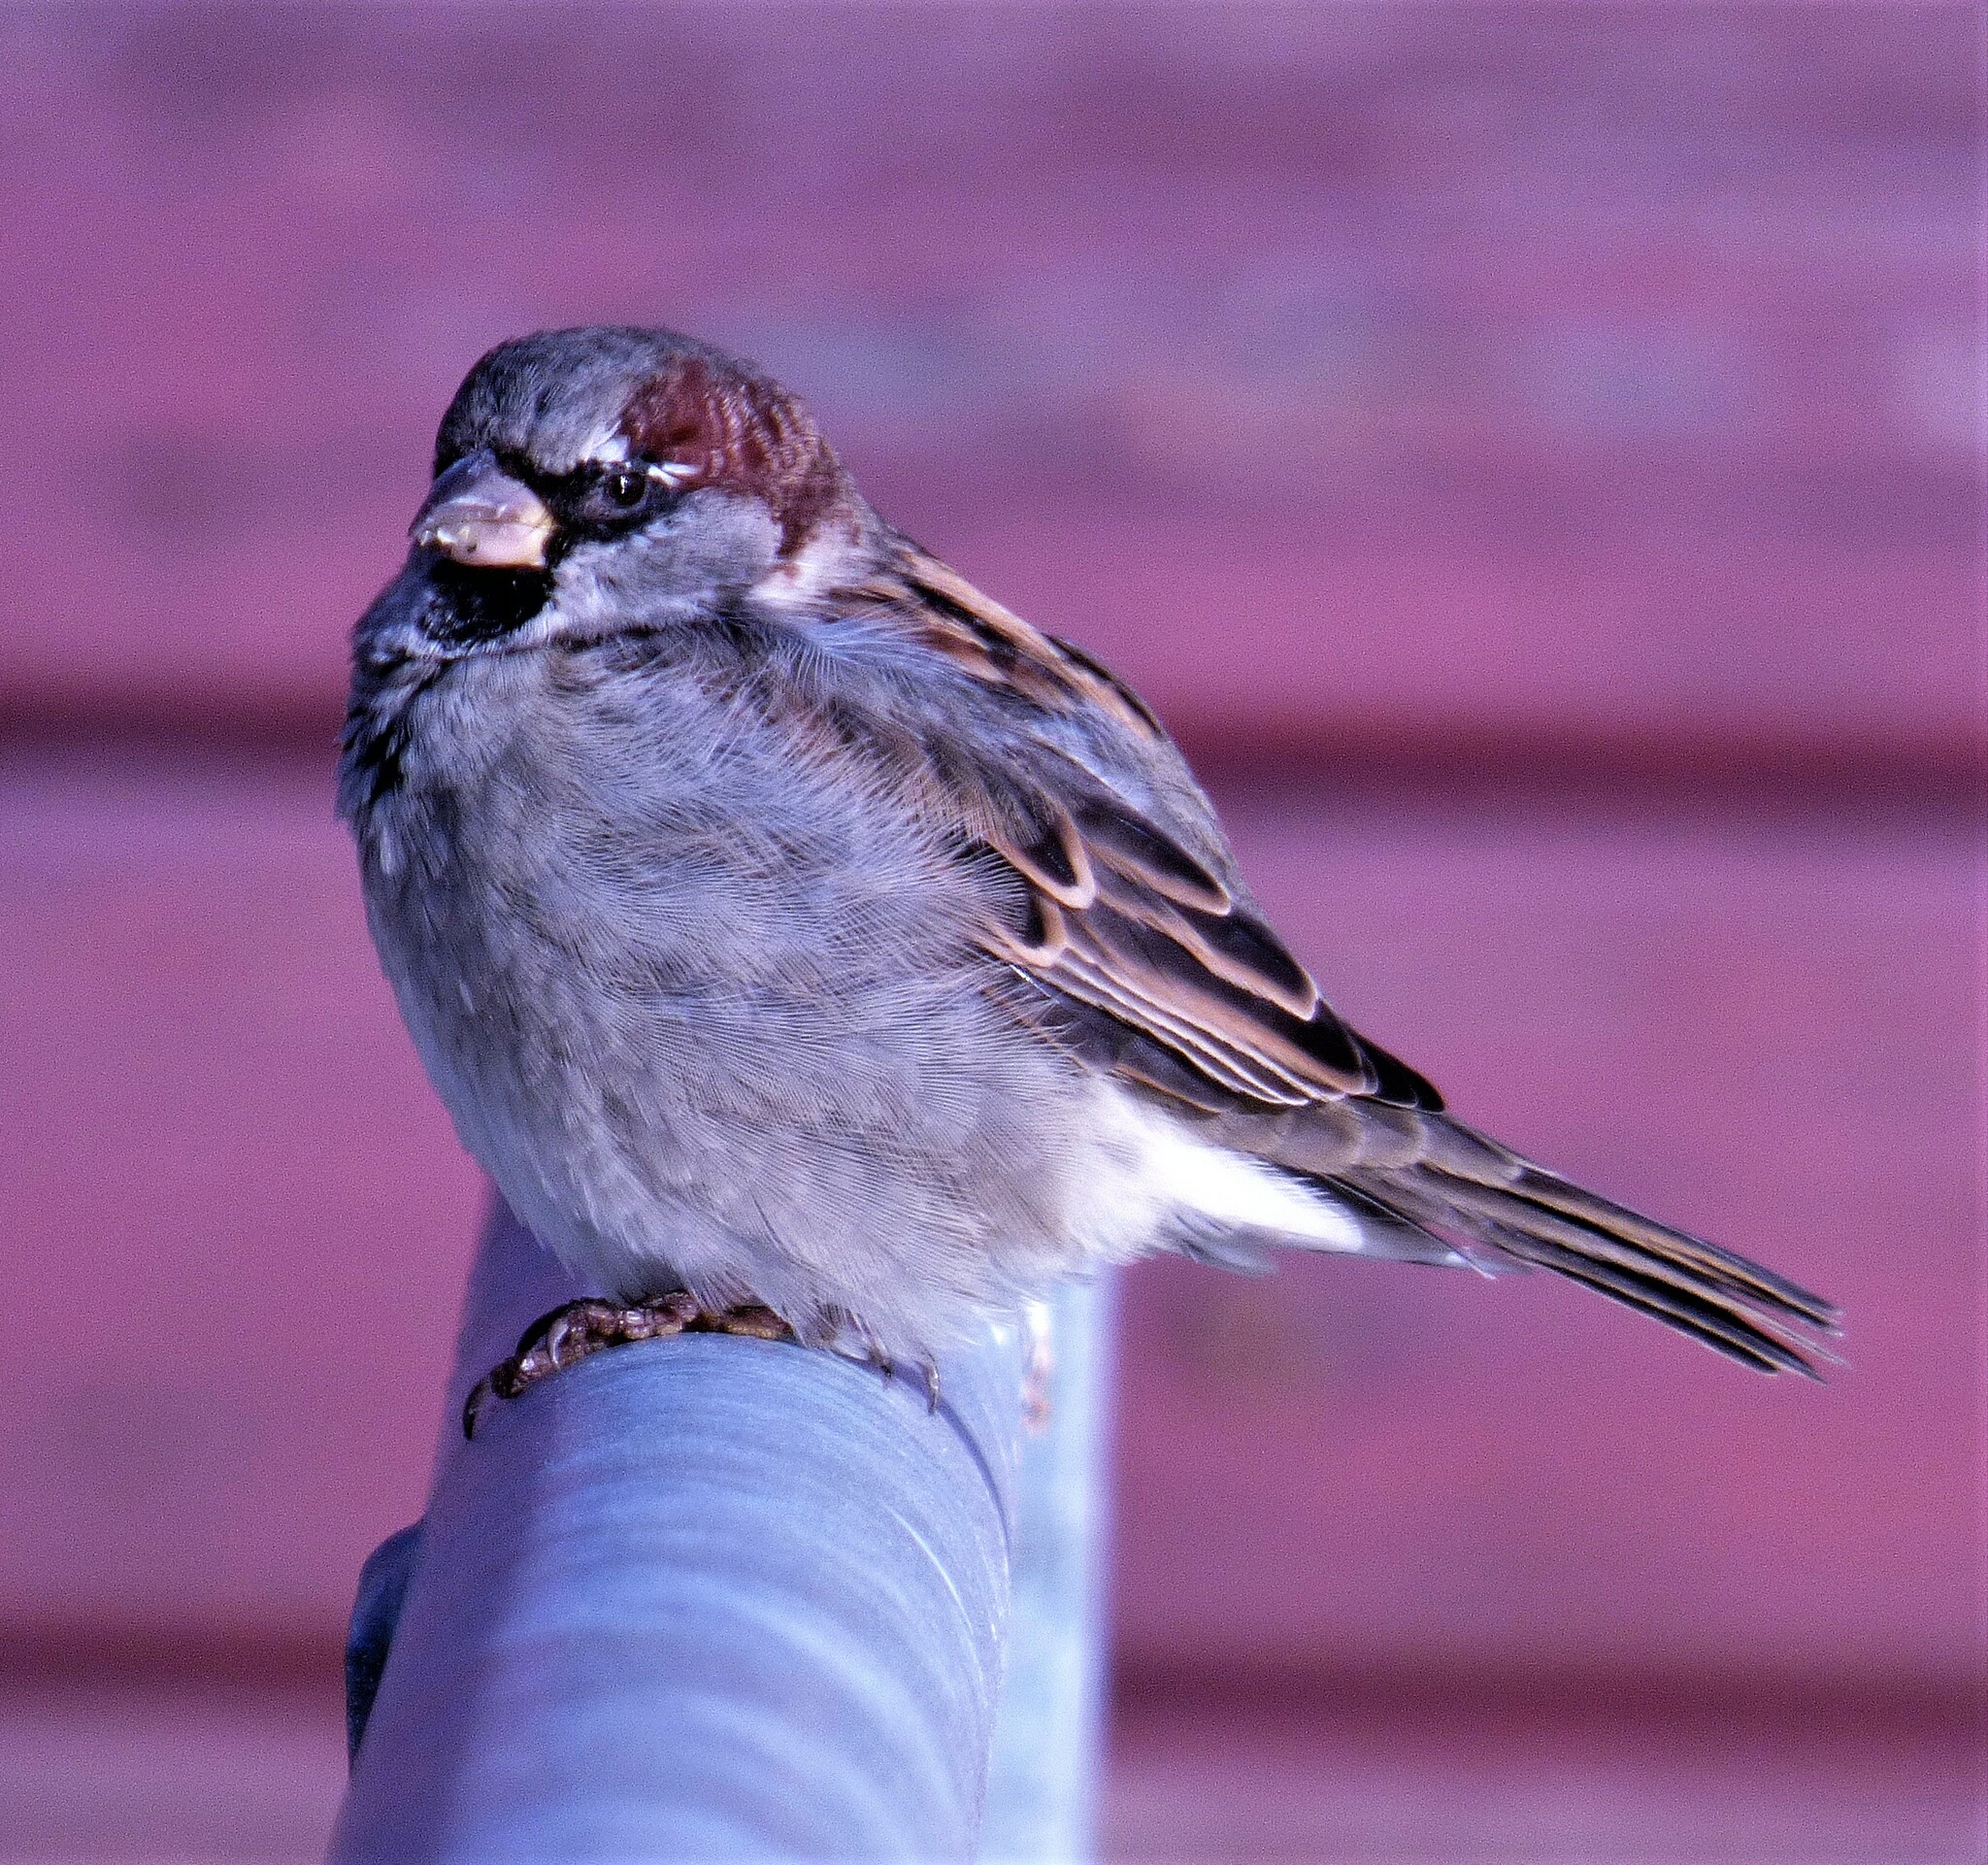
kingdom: Animalia
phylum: Chordata
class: Aves
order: Passeriformes
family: Passeridae
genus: Passer
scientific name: Passer domesticus
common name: House sparrow
